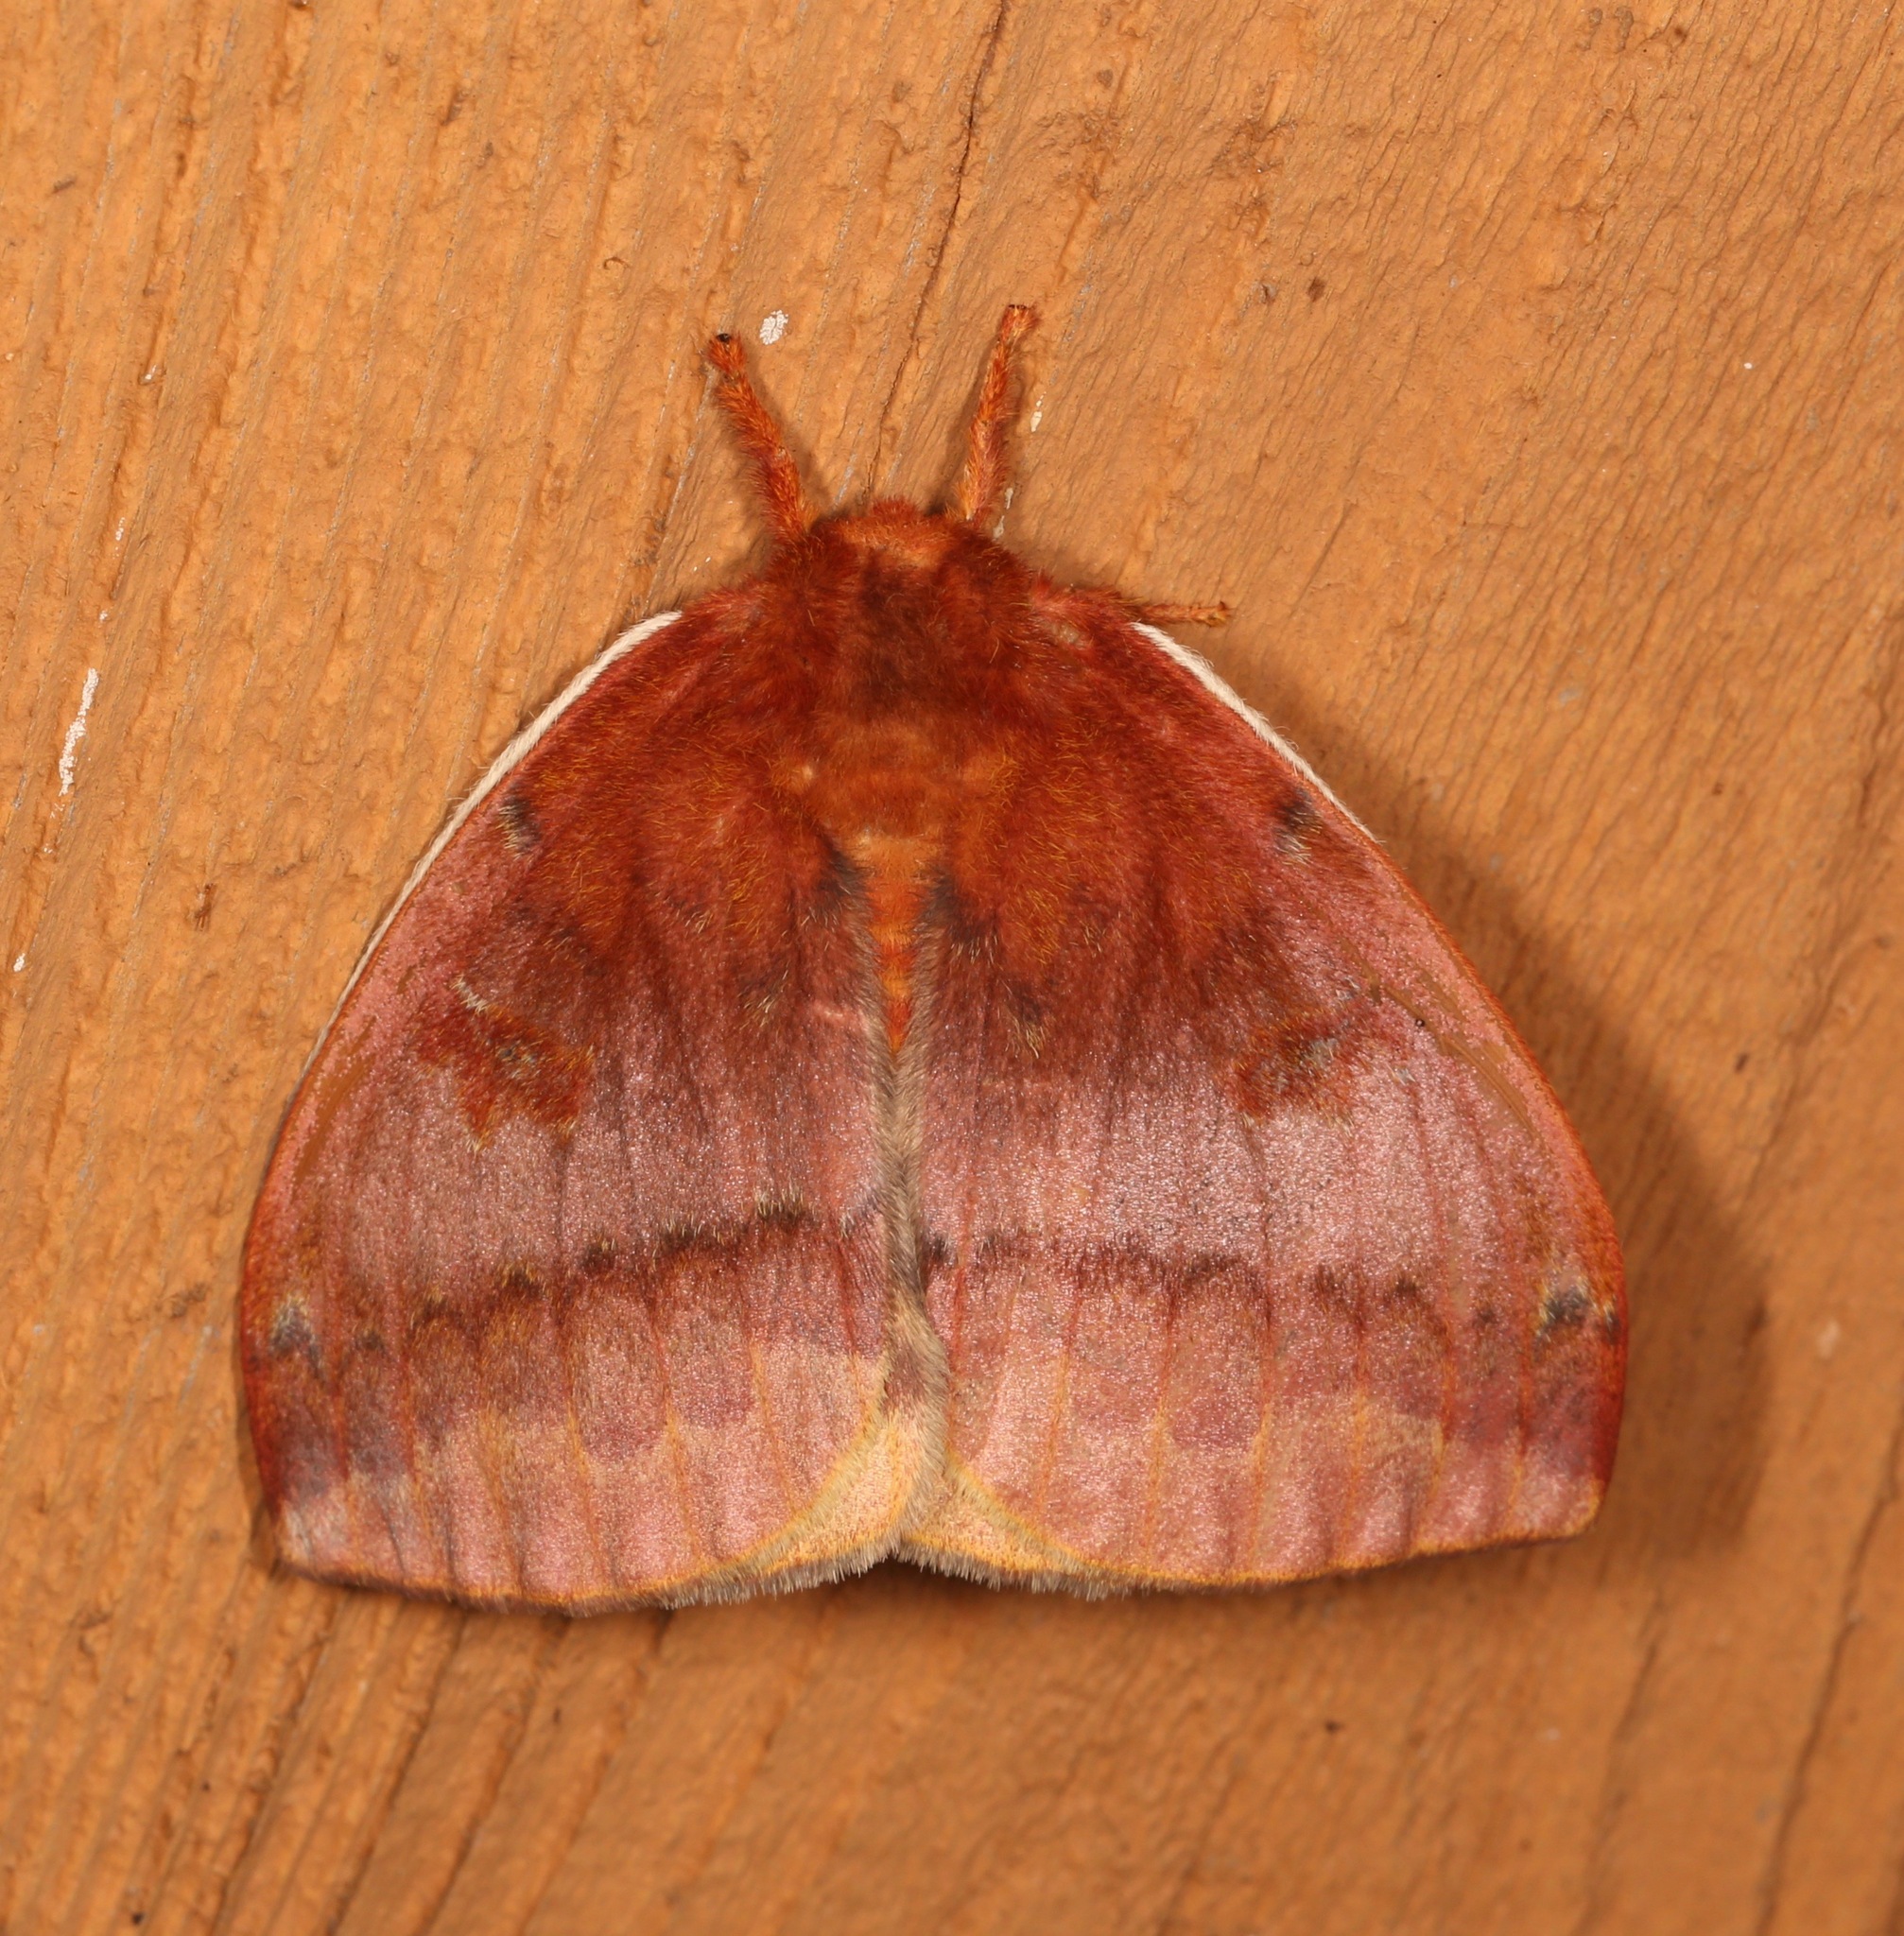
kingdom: Animalia
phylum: Arthropoda
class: Insecta
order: Lepidoptera
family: Saturniidae
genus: Automeris
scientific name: Automeris io
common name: Io moth
